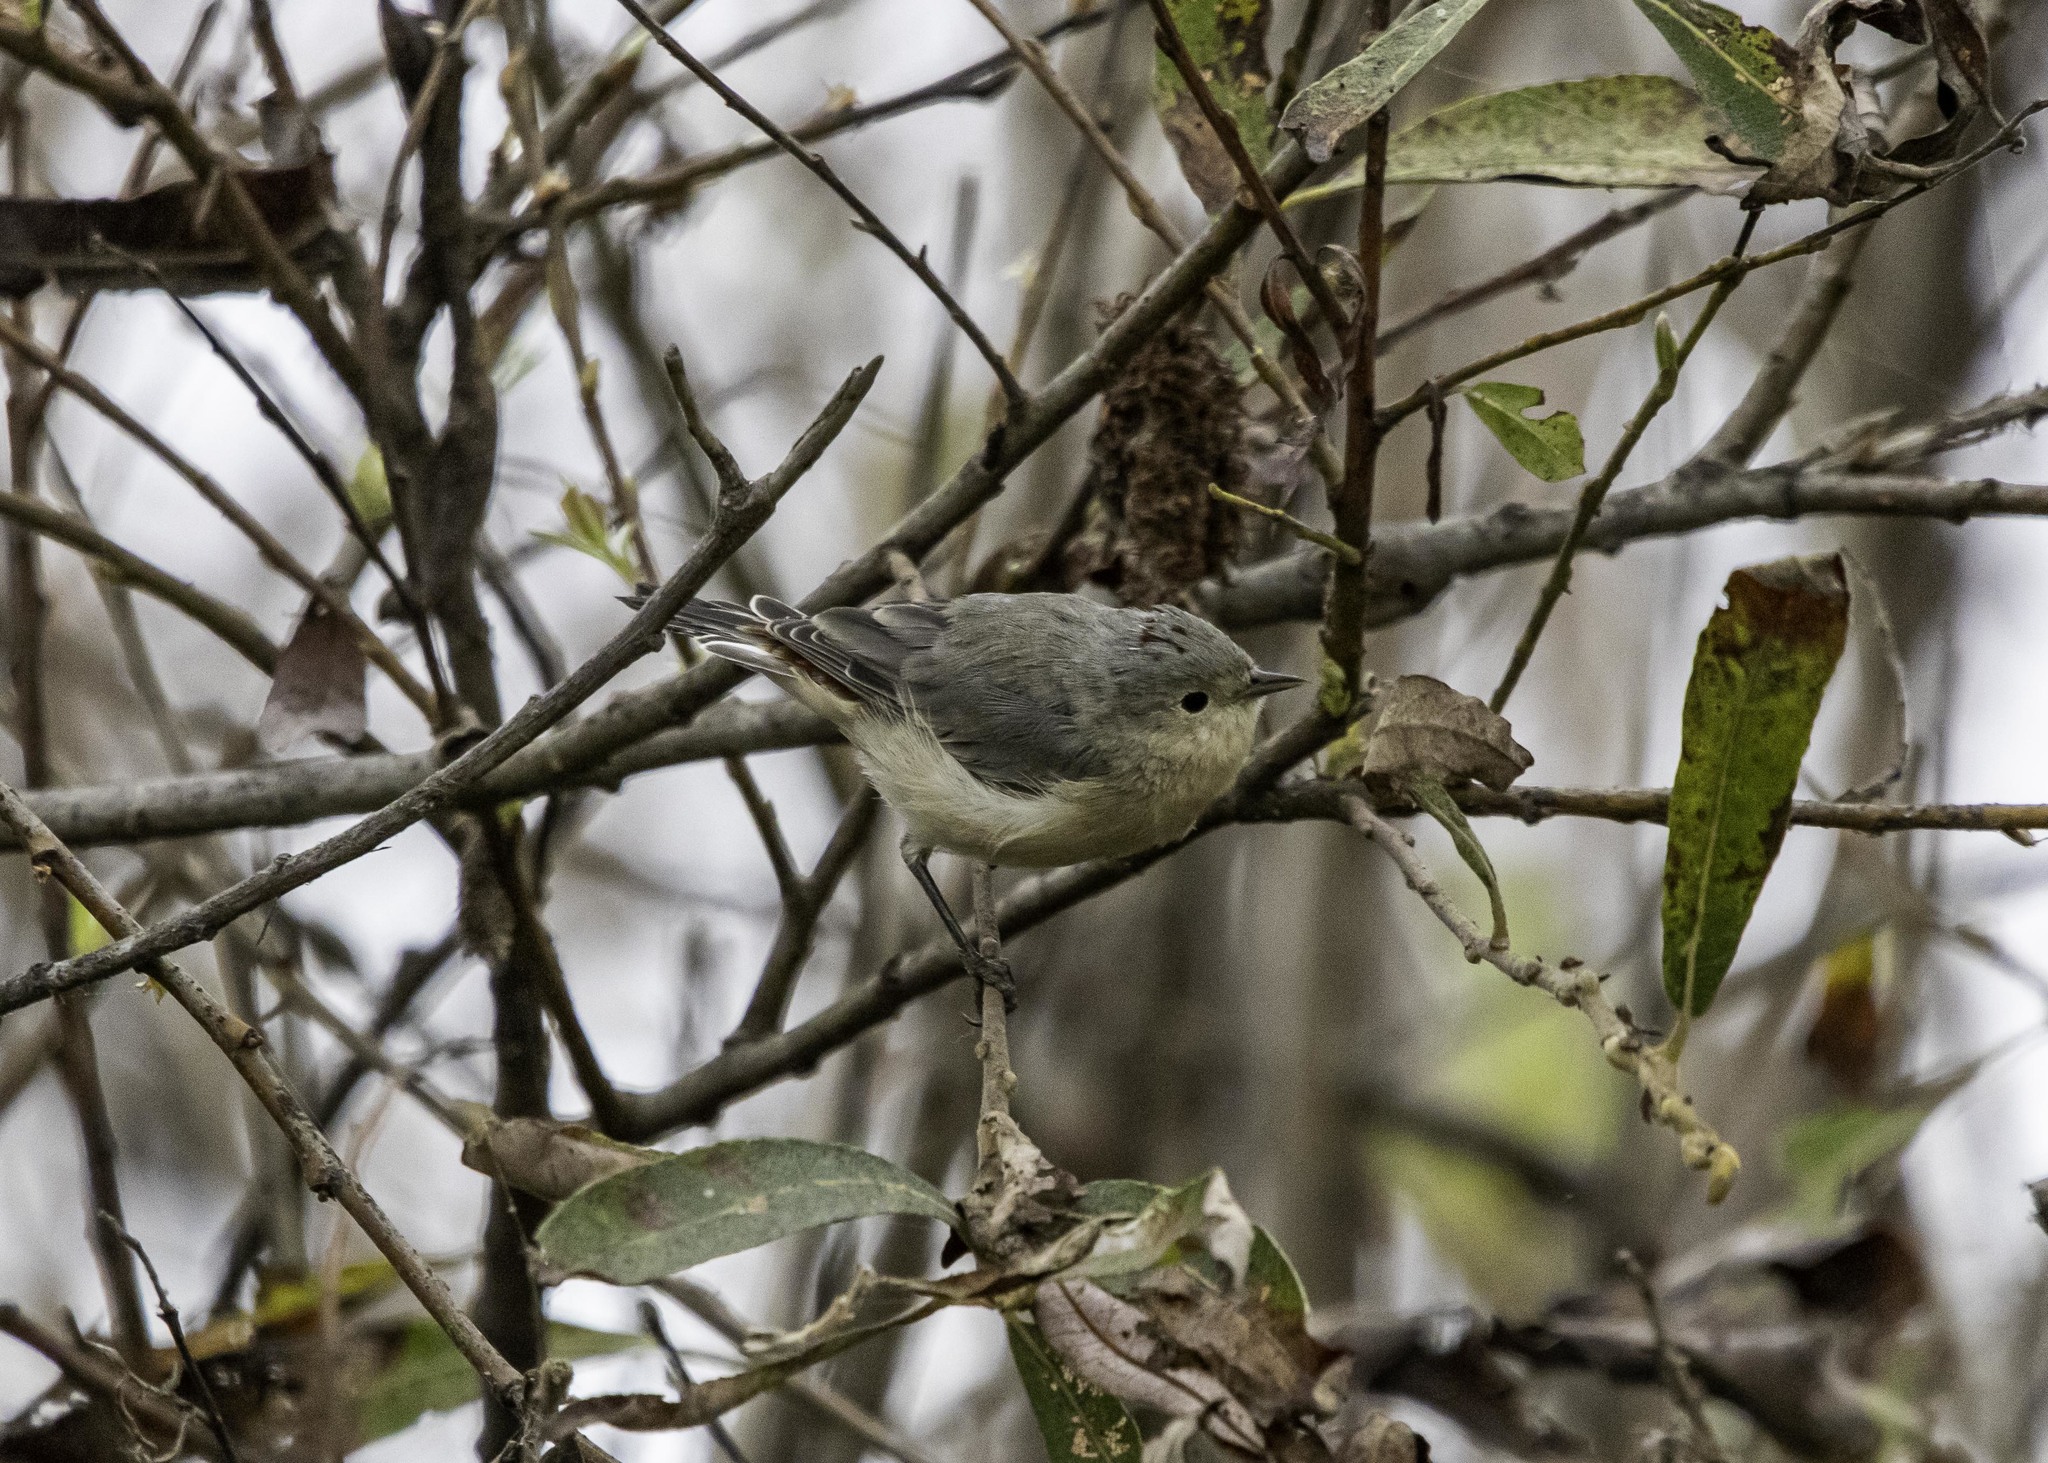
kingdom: Animalia
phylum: Chordata
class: Aves
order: Passeriformes
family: Parulidae
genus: Leiothlypis
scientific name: Leiothlypis luciae
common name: Lucy's warbler
